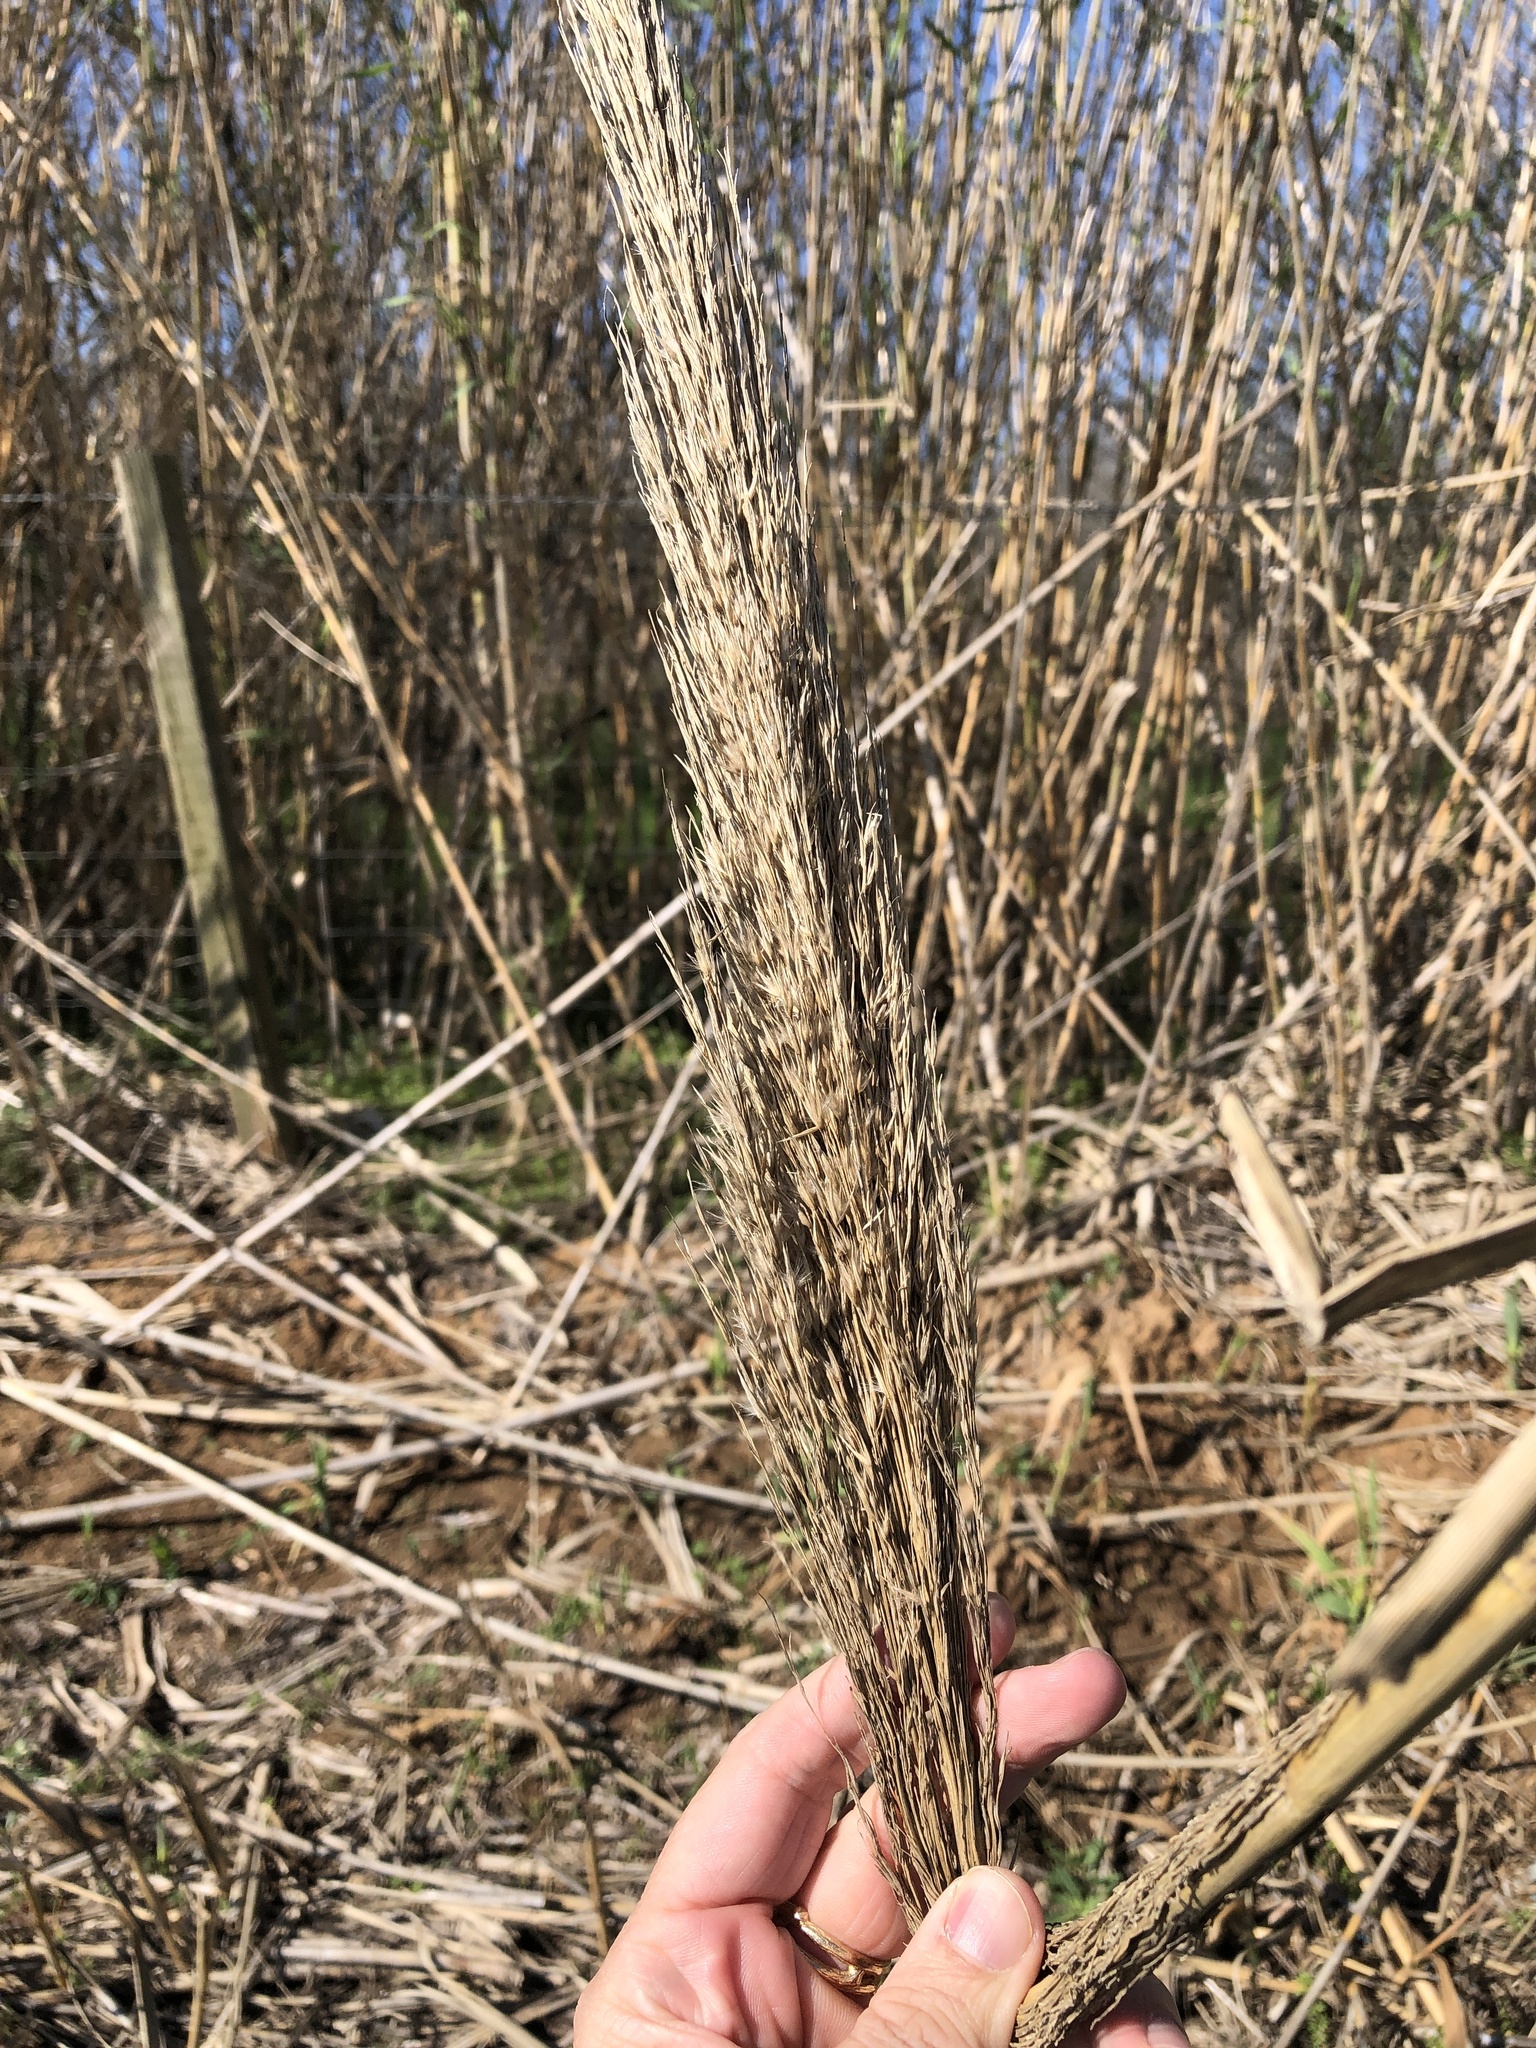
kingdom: Plantae
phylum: Tracheophyta
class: Liliopsida
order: Poales
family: Poaceae
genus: Arundo
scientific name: Arundo donax
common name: Giant reed
